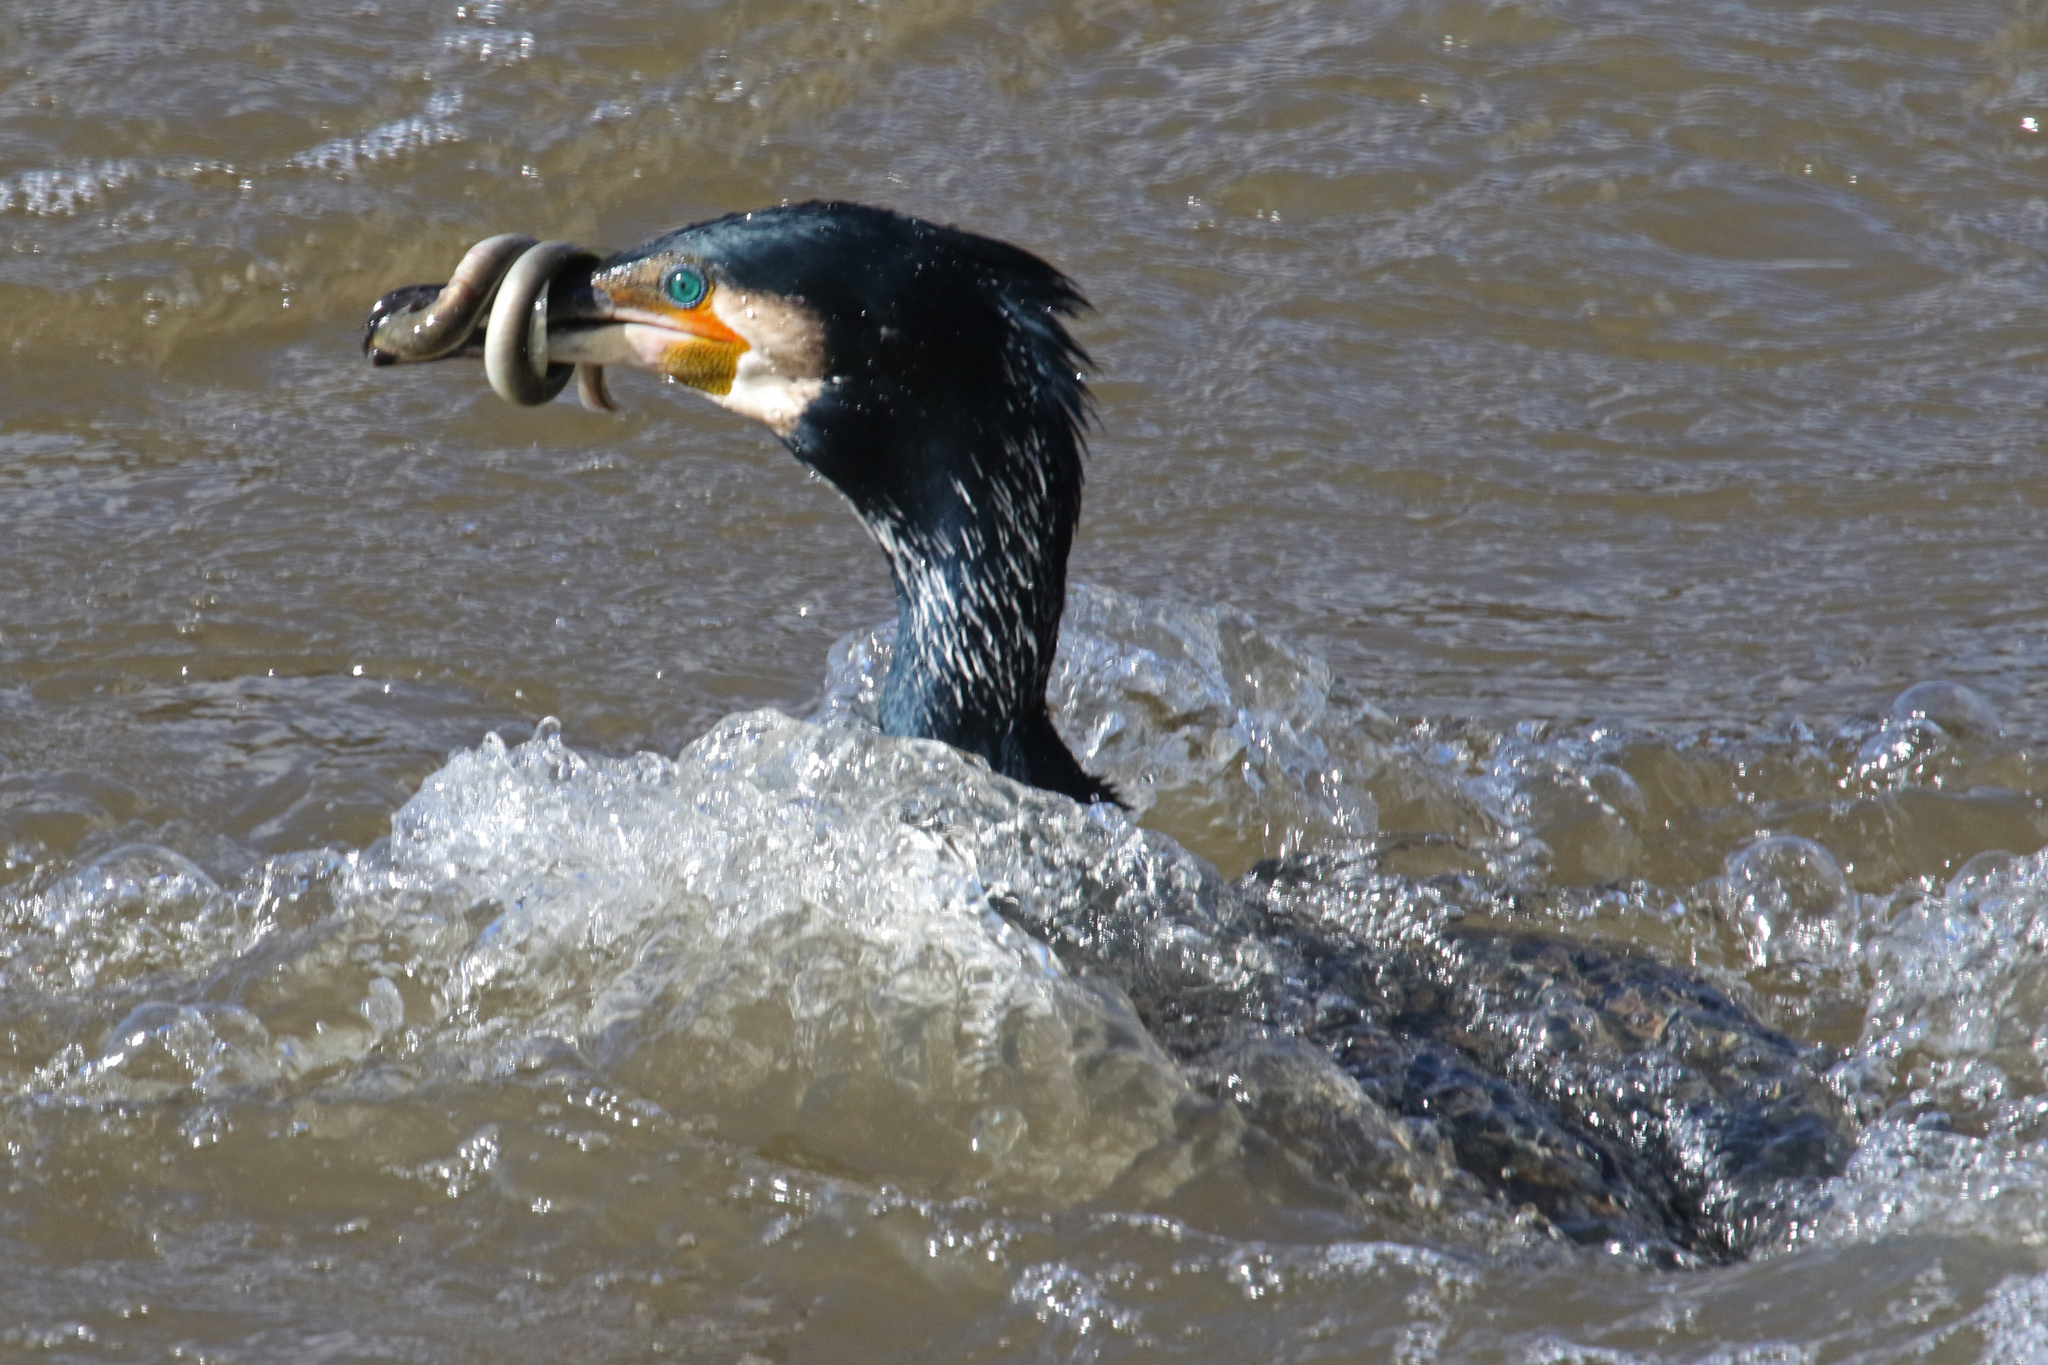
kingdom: Animalia
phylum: Chordata
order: Anguilliformes
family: Anguillidae
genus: Anguilla
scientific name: Anguilla anguilla
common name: European eel
